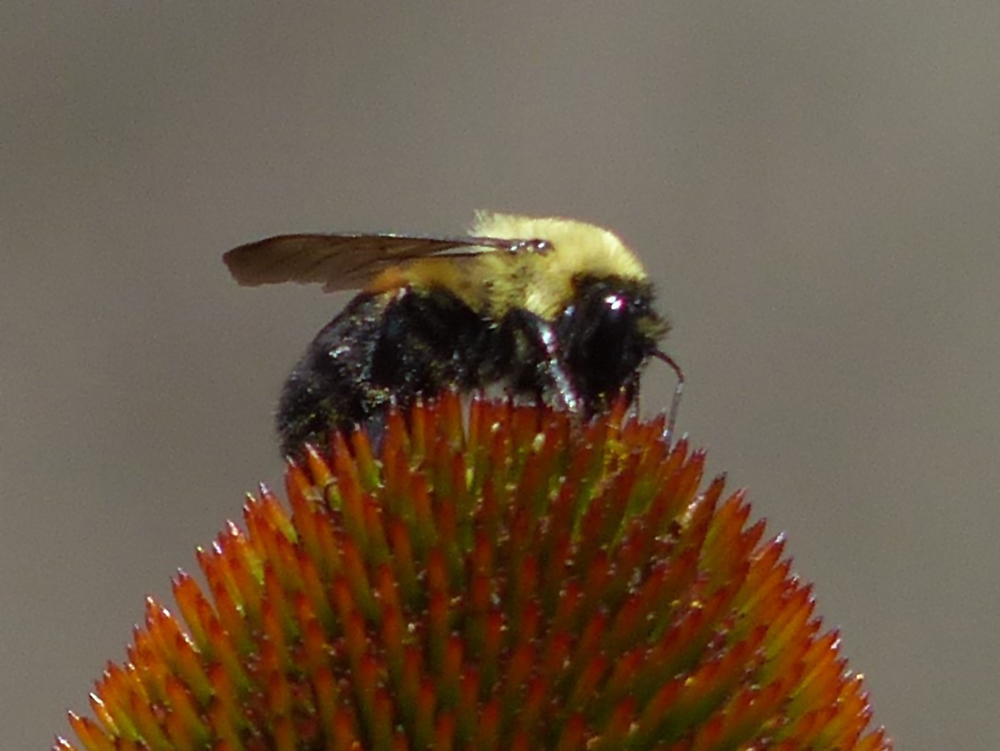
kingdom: Animalia
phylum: Arthropoda
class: Insecta
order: Hymenoptera
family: Apidae
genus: Bombus
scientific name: Bombus griseocollis
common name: Brown-belted bumble bee
